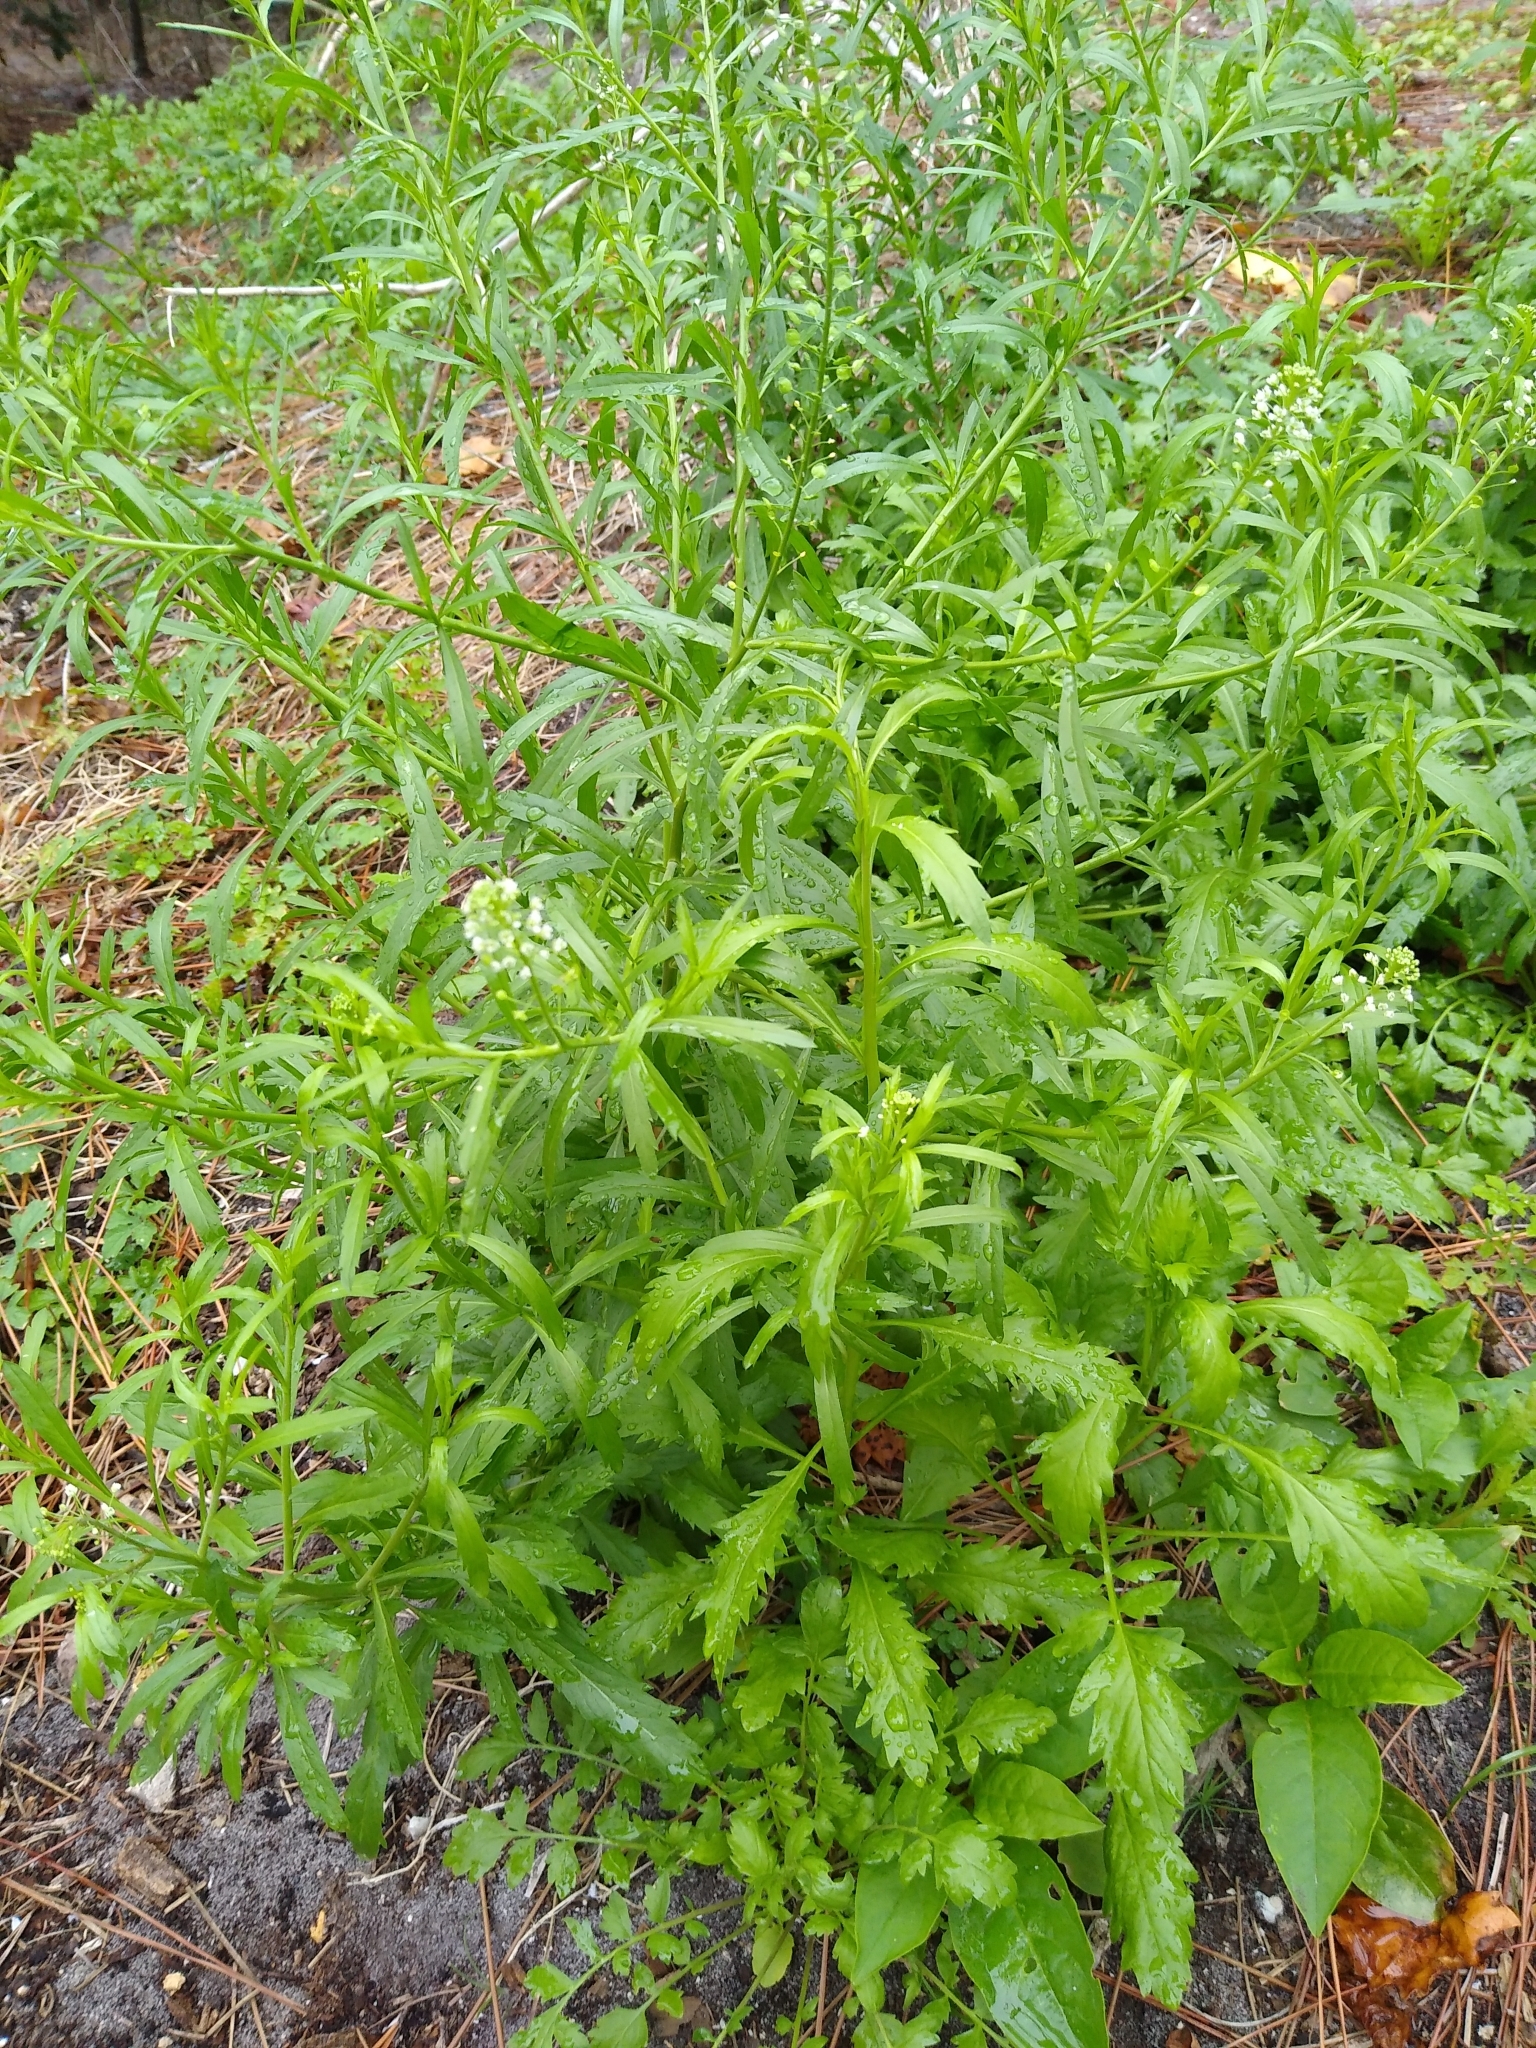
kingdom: Plantae
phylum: Tracheophyta
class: Magnoliopsida
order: Brassicales
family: Brassicaceae
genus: Lepidium
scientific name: Lepidium virginicum
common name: Least pepperwort
